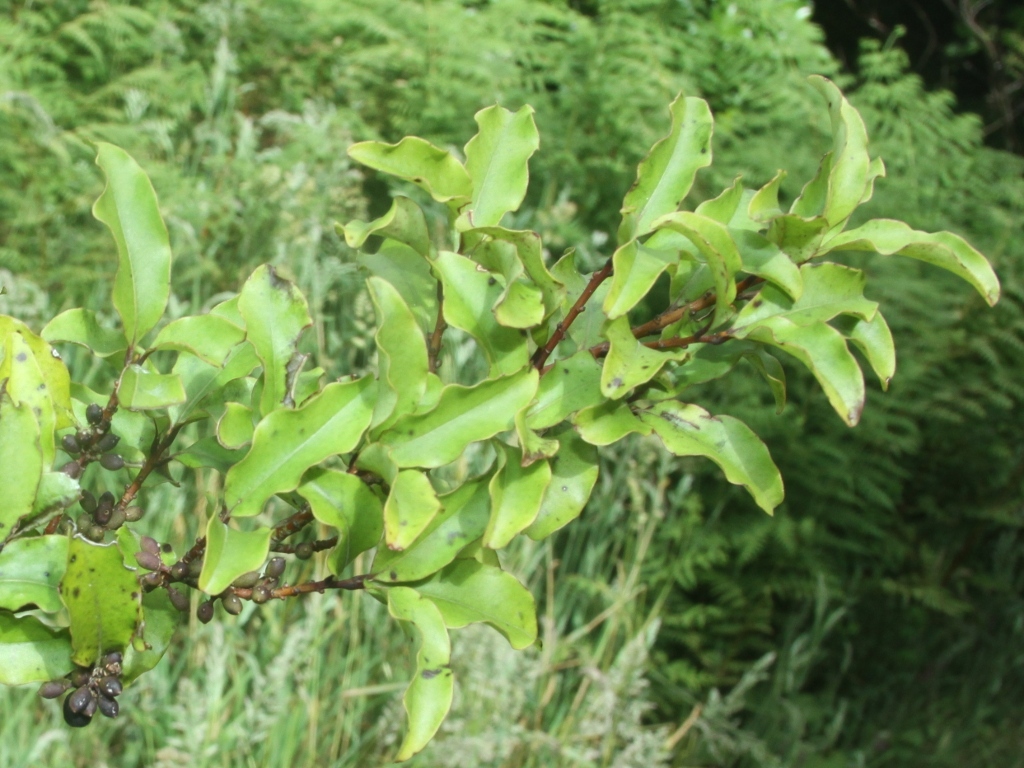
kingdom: Plantae
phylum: Tracheophyta
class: Magnoliopsida
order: Ericales
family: Primulaceae
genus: Myrsine
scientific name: Myrsine australis
